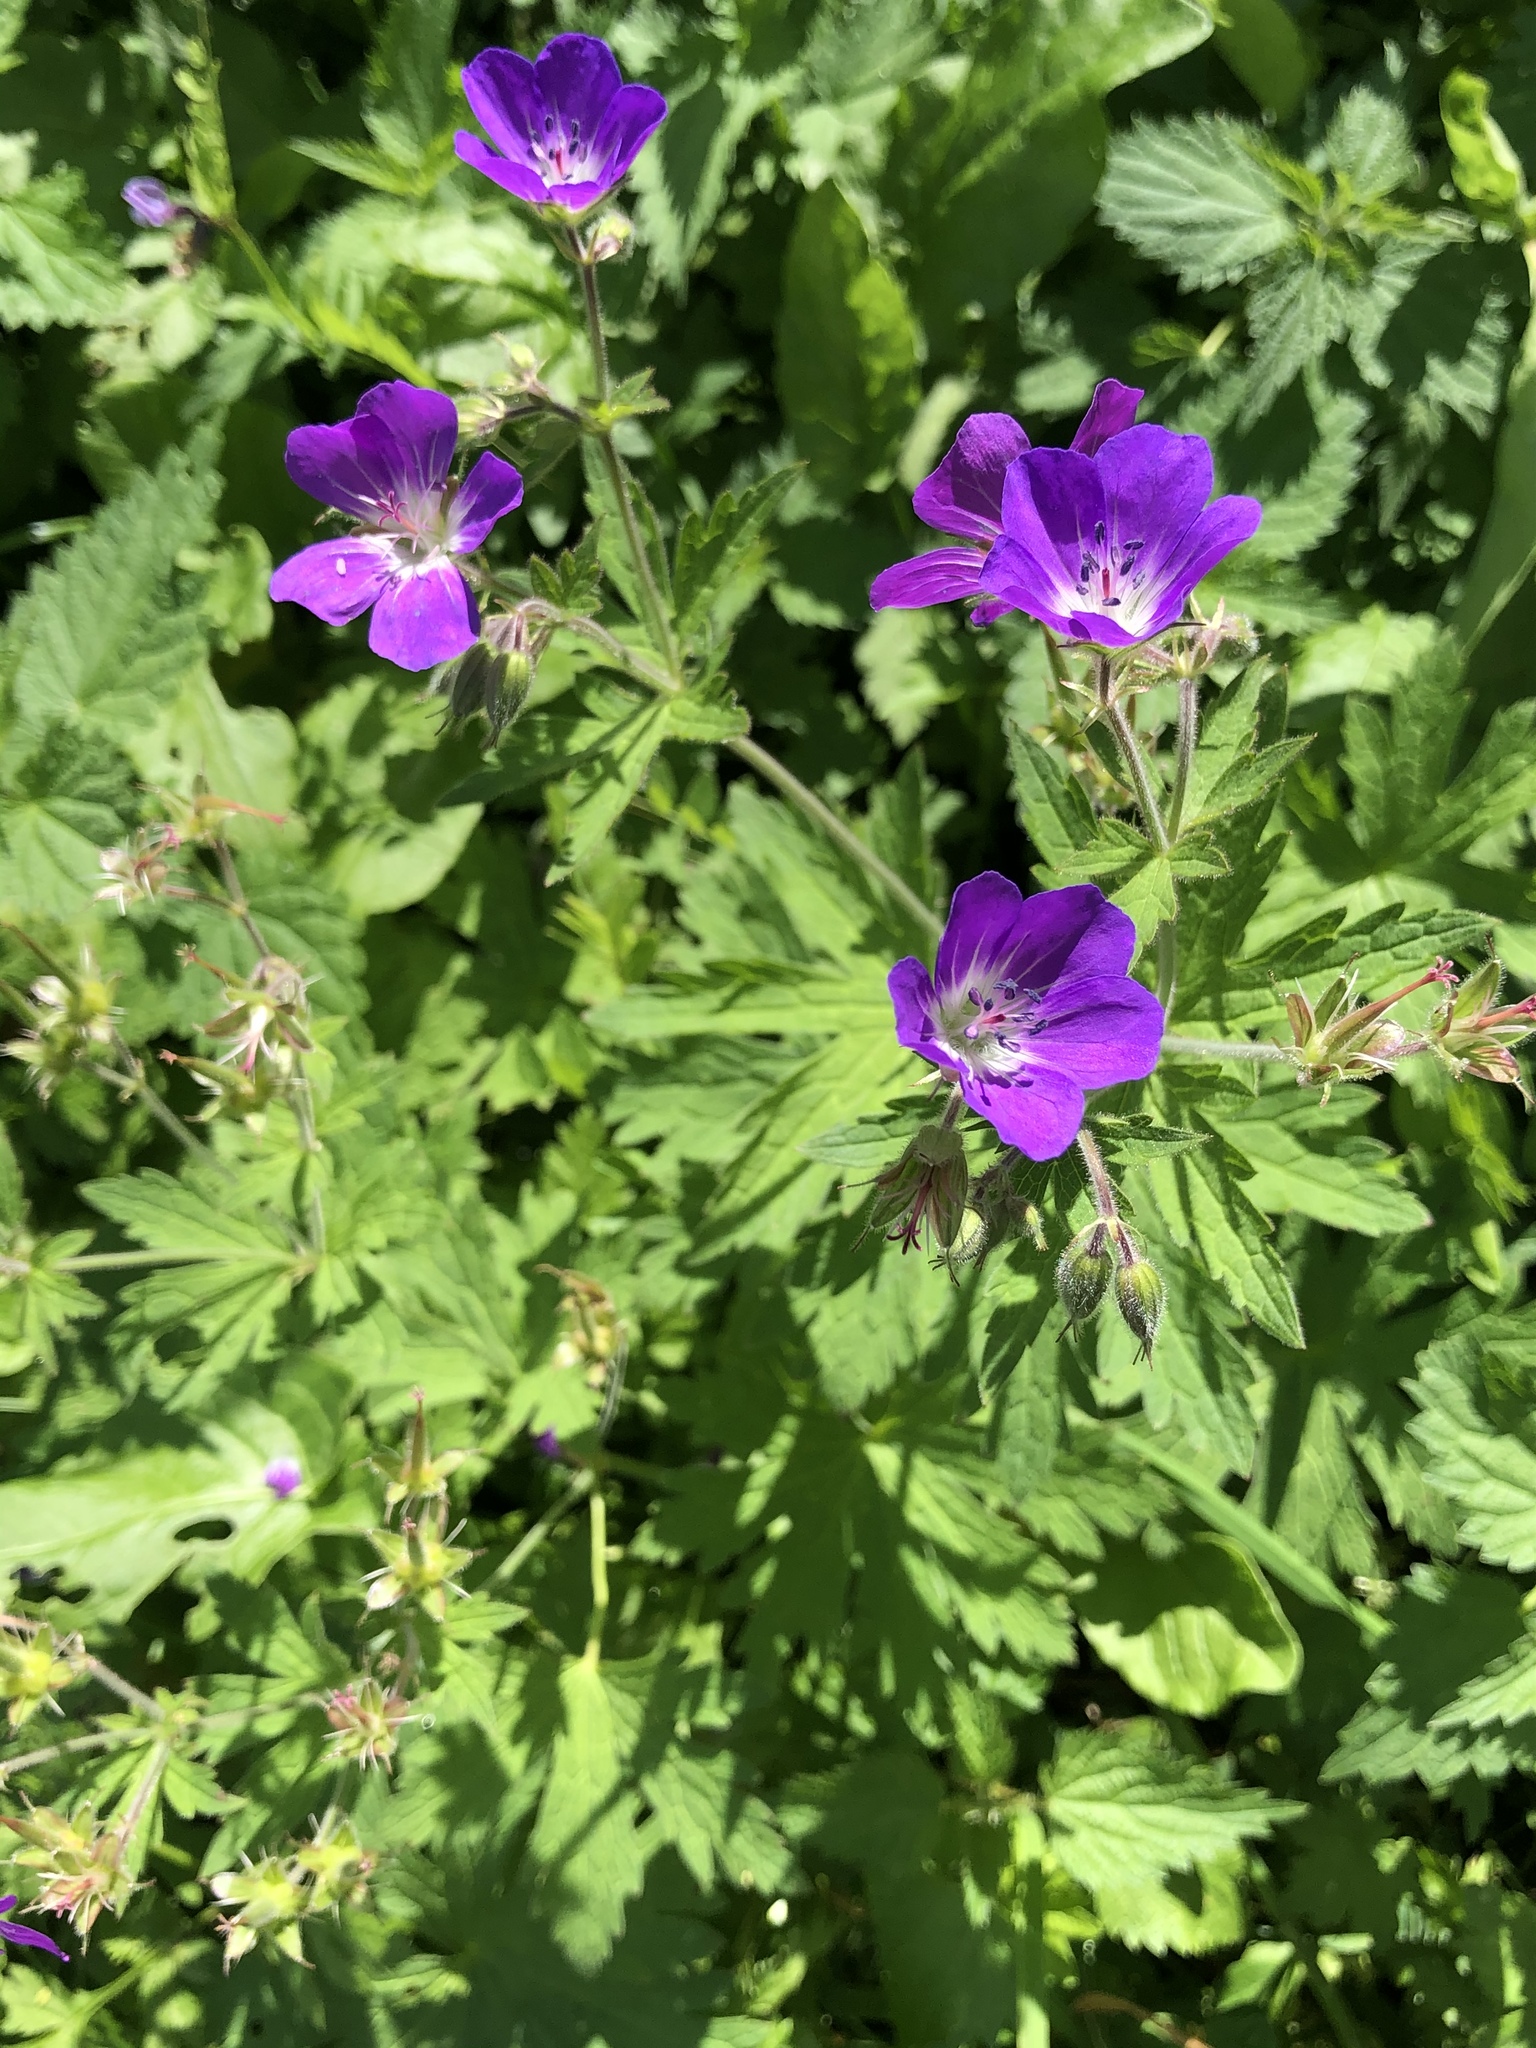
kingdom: Plantae
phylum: Tracheophyta
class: Magnoliopsida
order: Geraniales
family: Geraniaceae
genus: Geranium
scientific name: Geranium sylvaticum
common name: Wood crane's-bill
